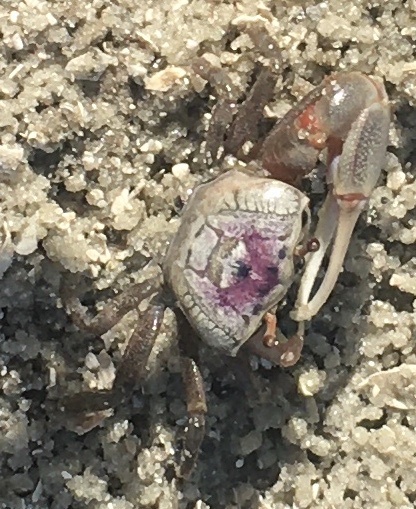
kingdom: Animalia
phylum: Arthropoda
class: Malacostraca
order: Decapoda
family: Ocypodidae
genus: Leptuca
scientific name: Leptuca pugilator
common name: Atlantic sand fiddler crab
